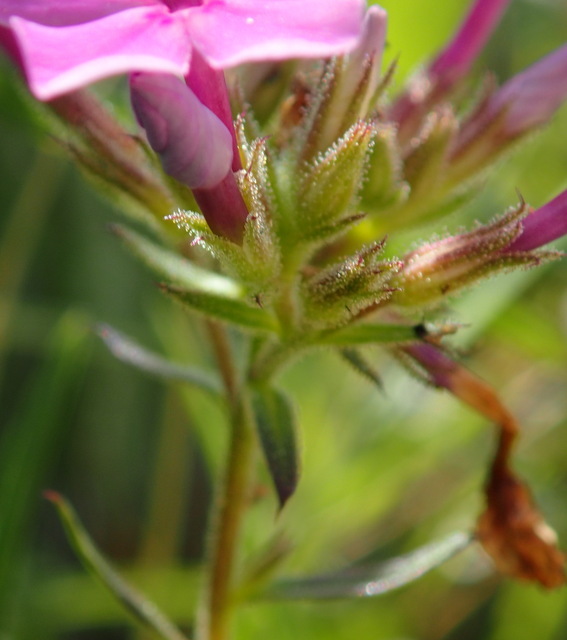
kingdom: Plantae
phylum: Tracheophyta
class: Magnoliopsida
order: Ericales
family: Polemoniaceae
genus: Phlox
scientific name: Phlox pilosa
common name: Prairie phlox
